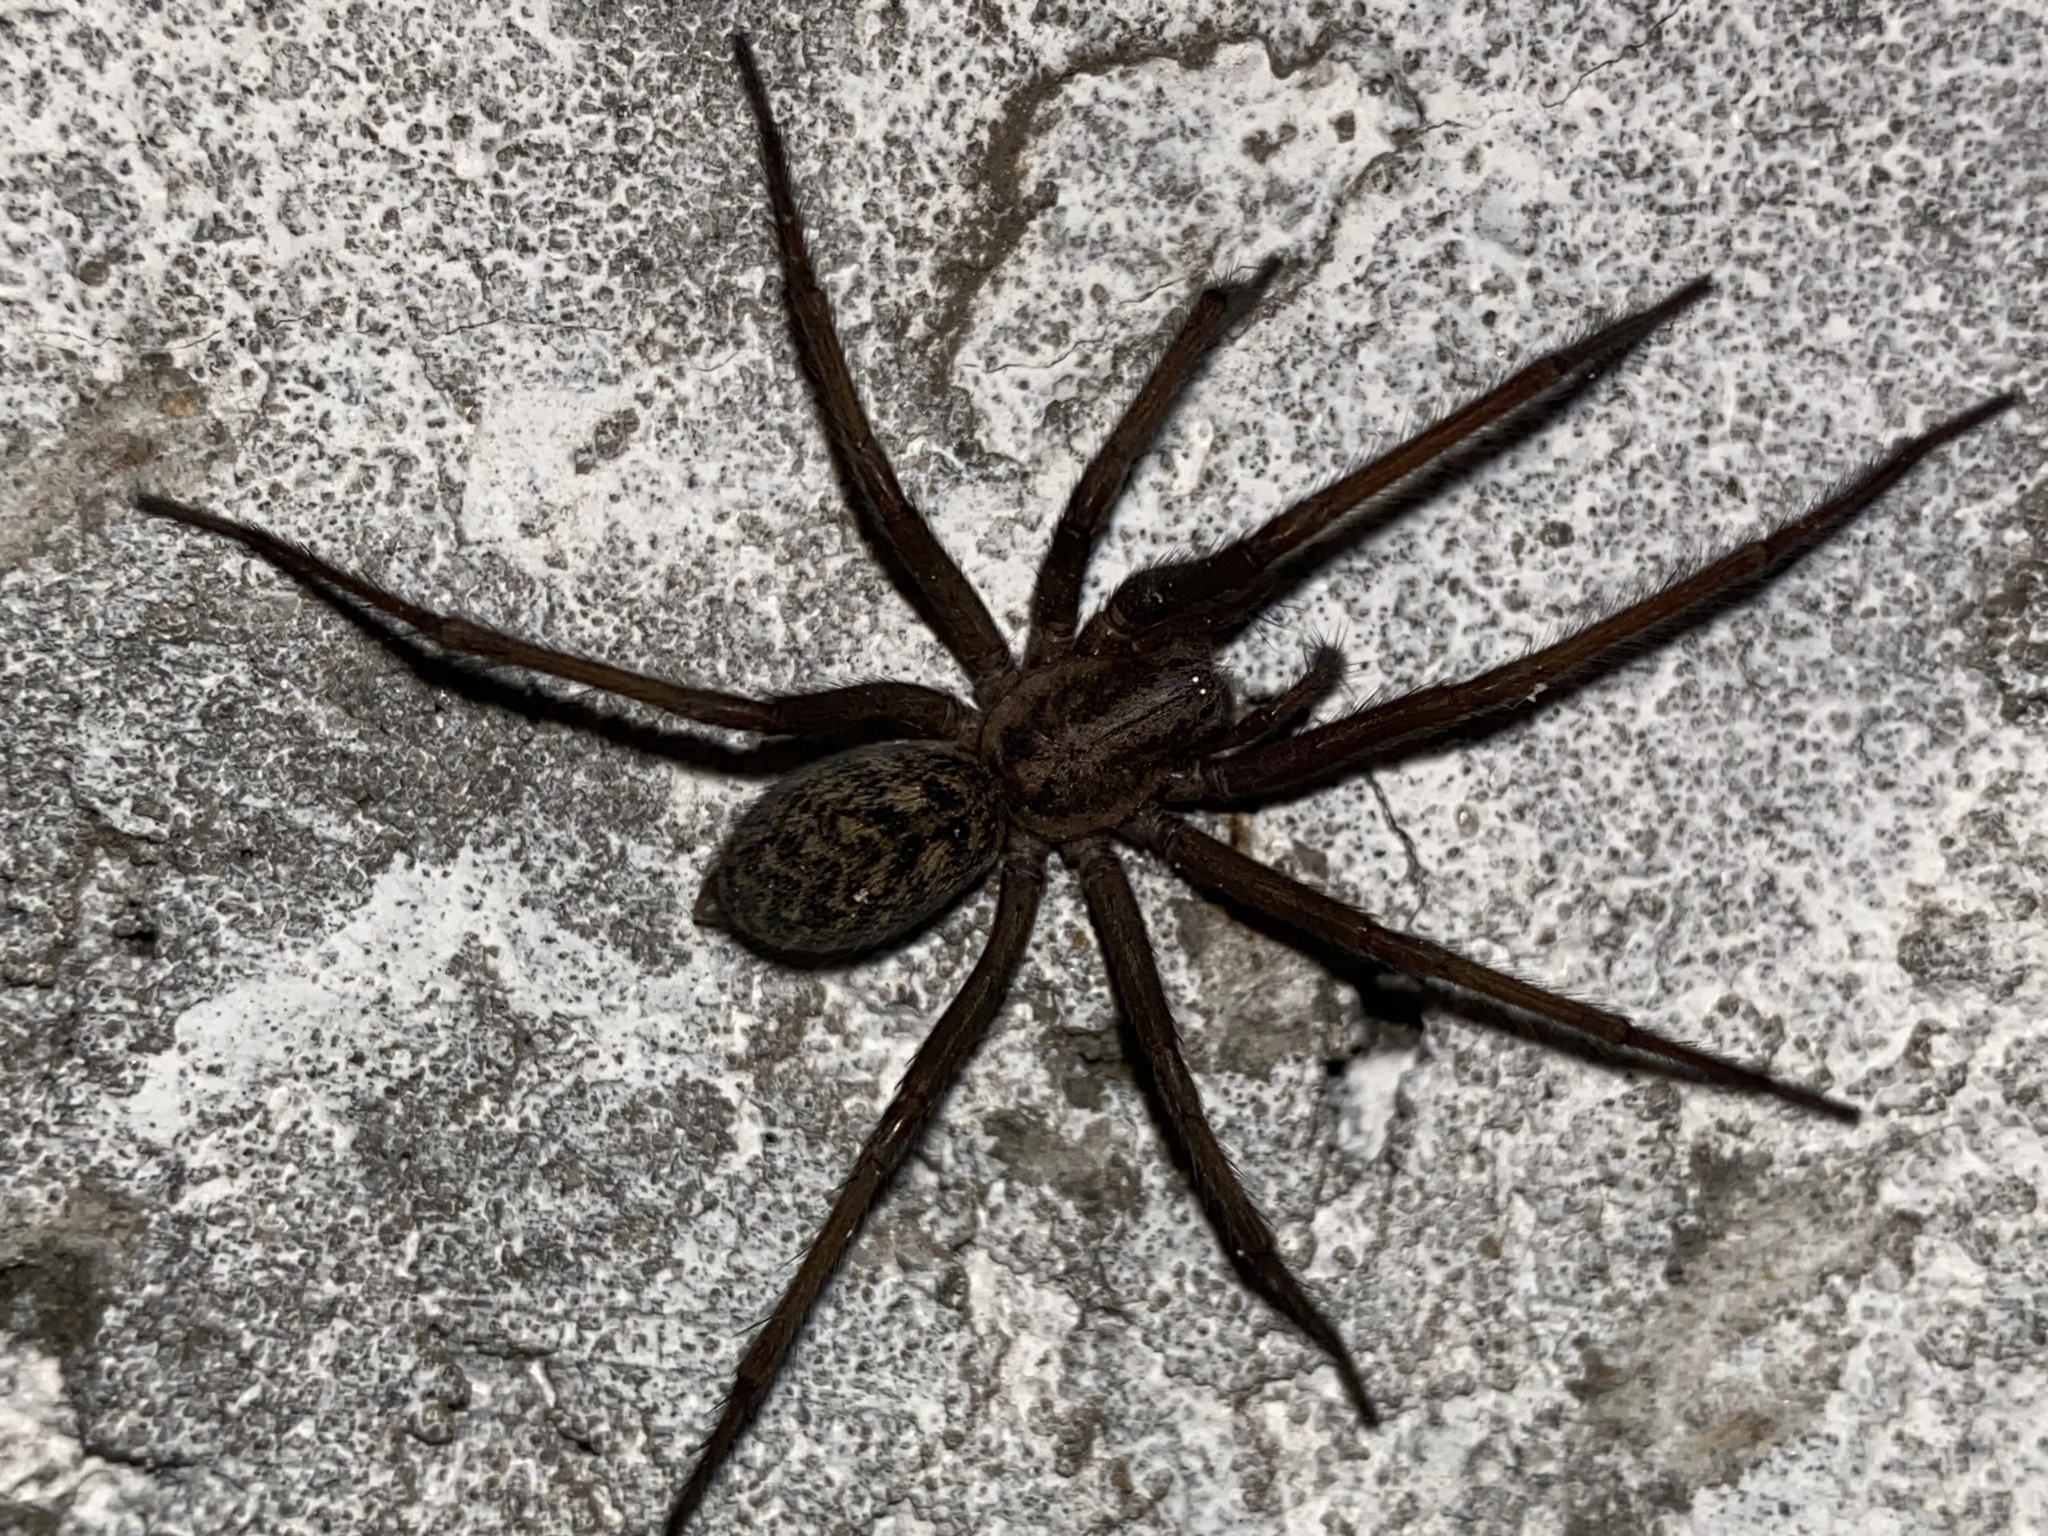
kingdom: Animalia
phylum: Arthropoda
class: Arachnida
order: Araneae
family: Agelenidae
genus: Eratigena
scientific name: Eratigena atrica
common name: Giant house spider
